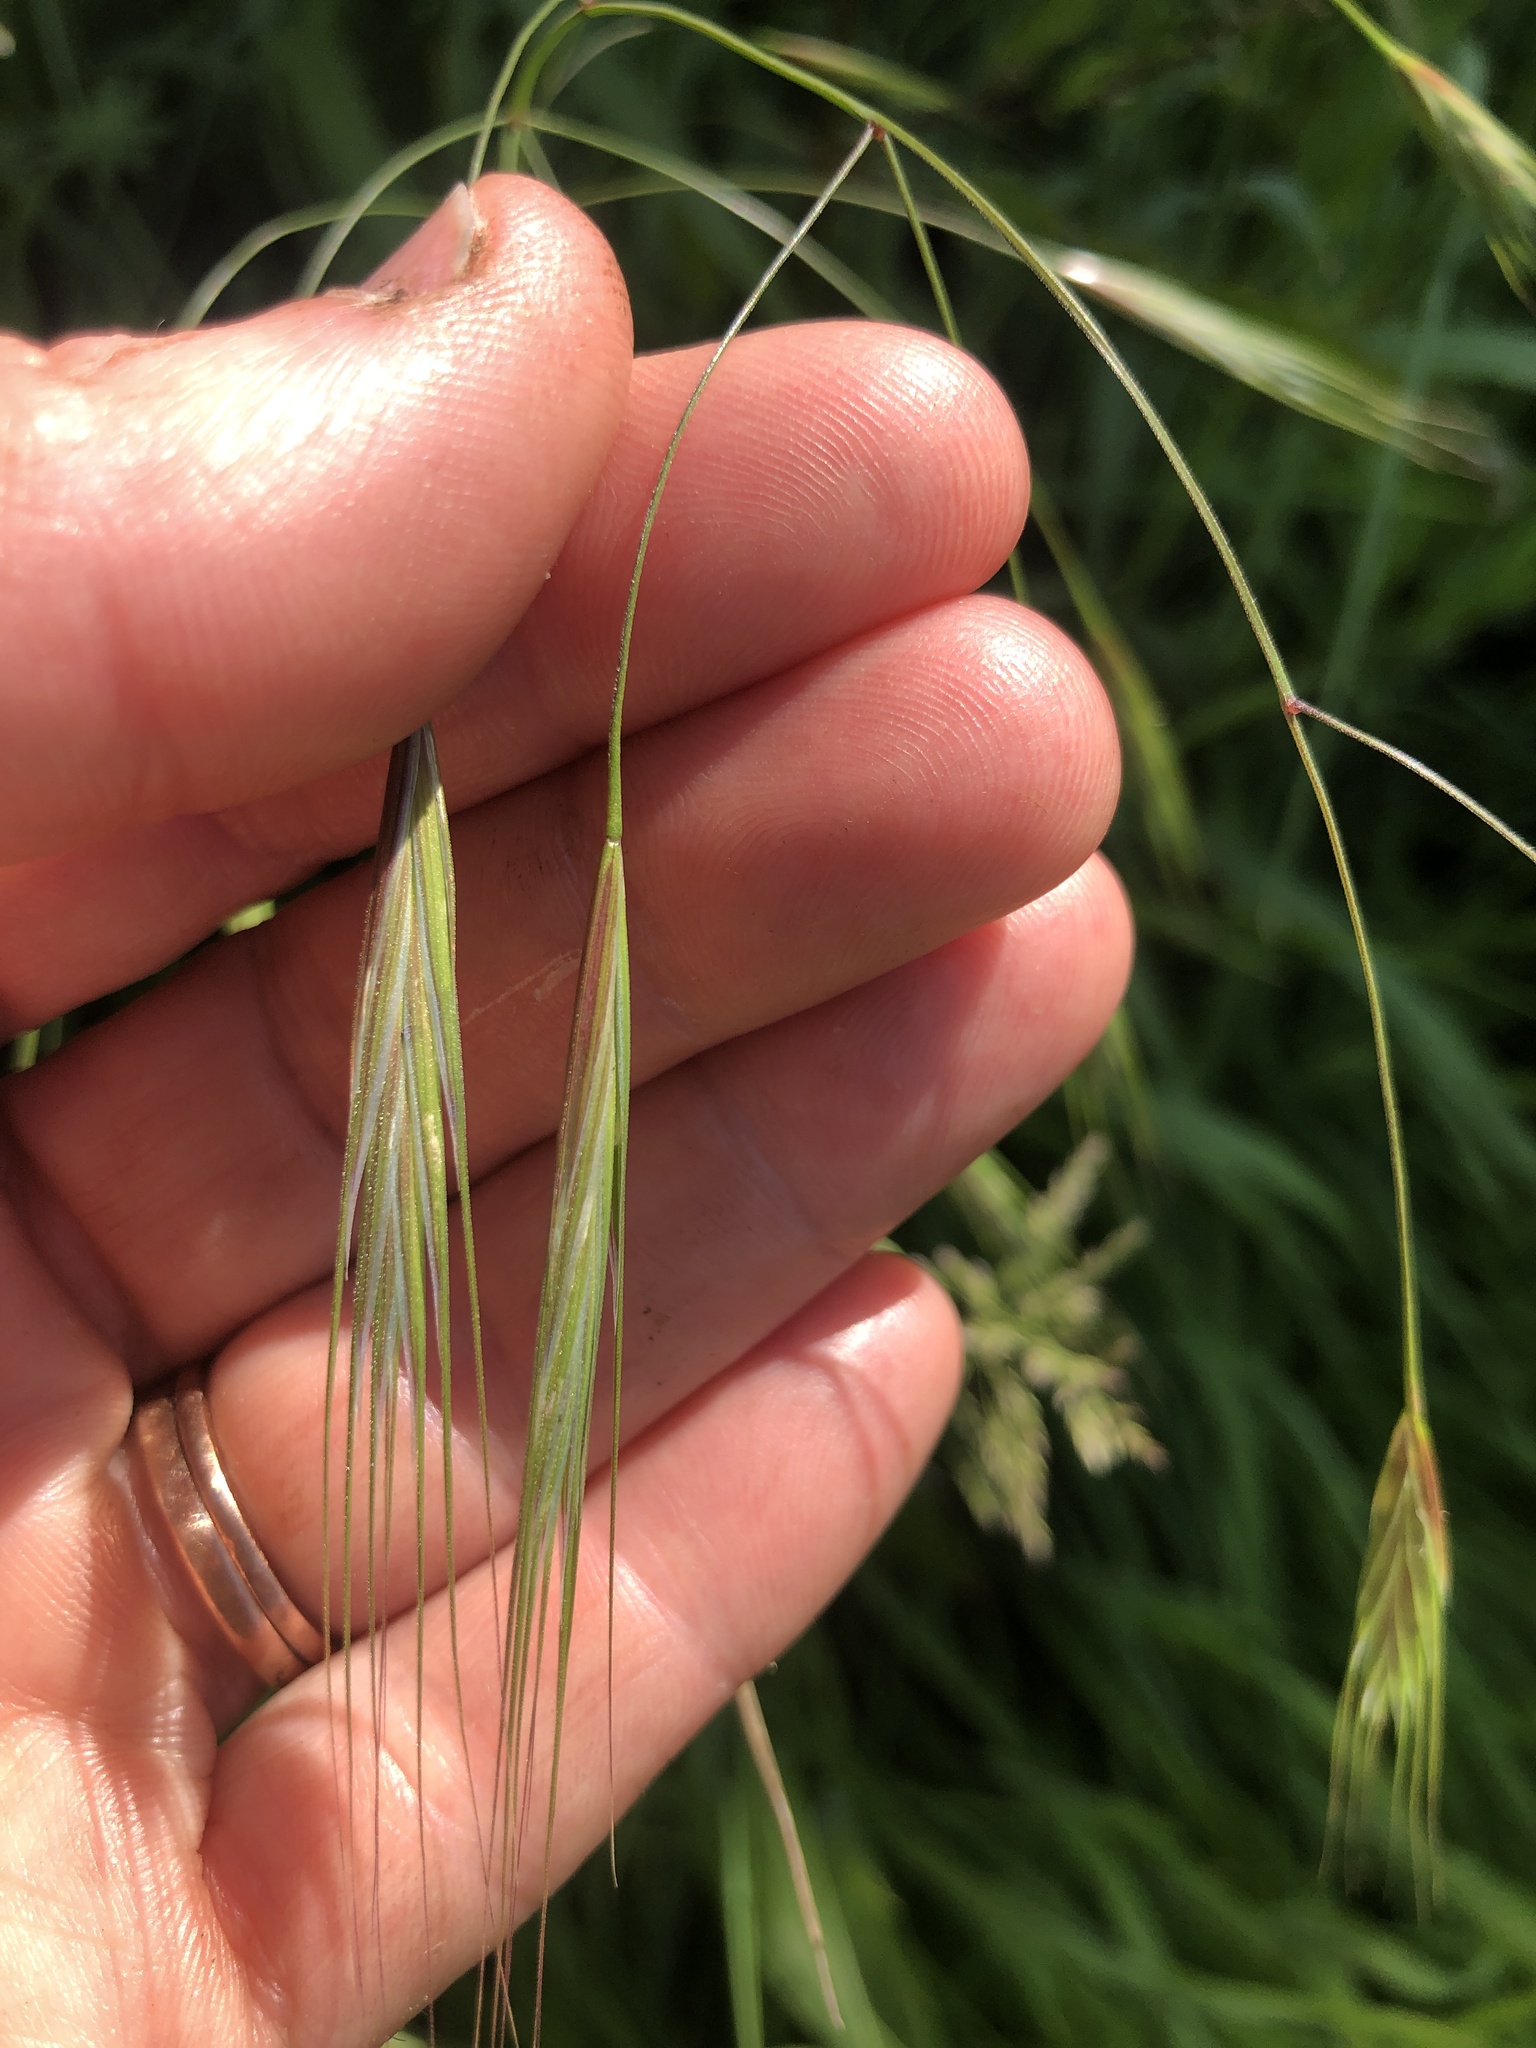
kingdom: Plantae
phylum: Tracheophyta
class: Liliopsida
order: Poales
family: Poaceae
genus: Bromus
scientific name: Bromus sterilis
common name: Poverty brome
